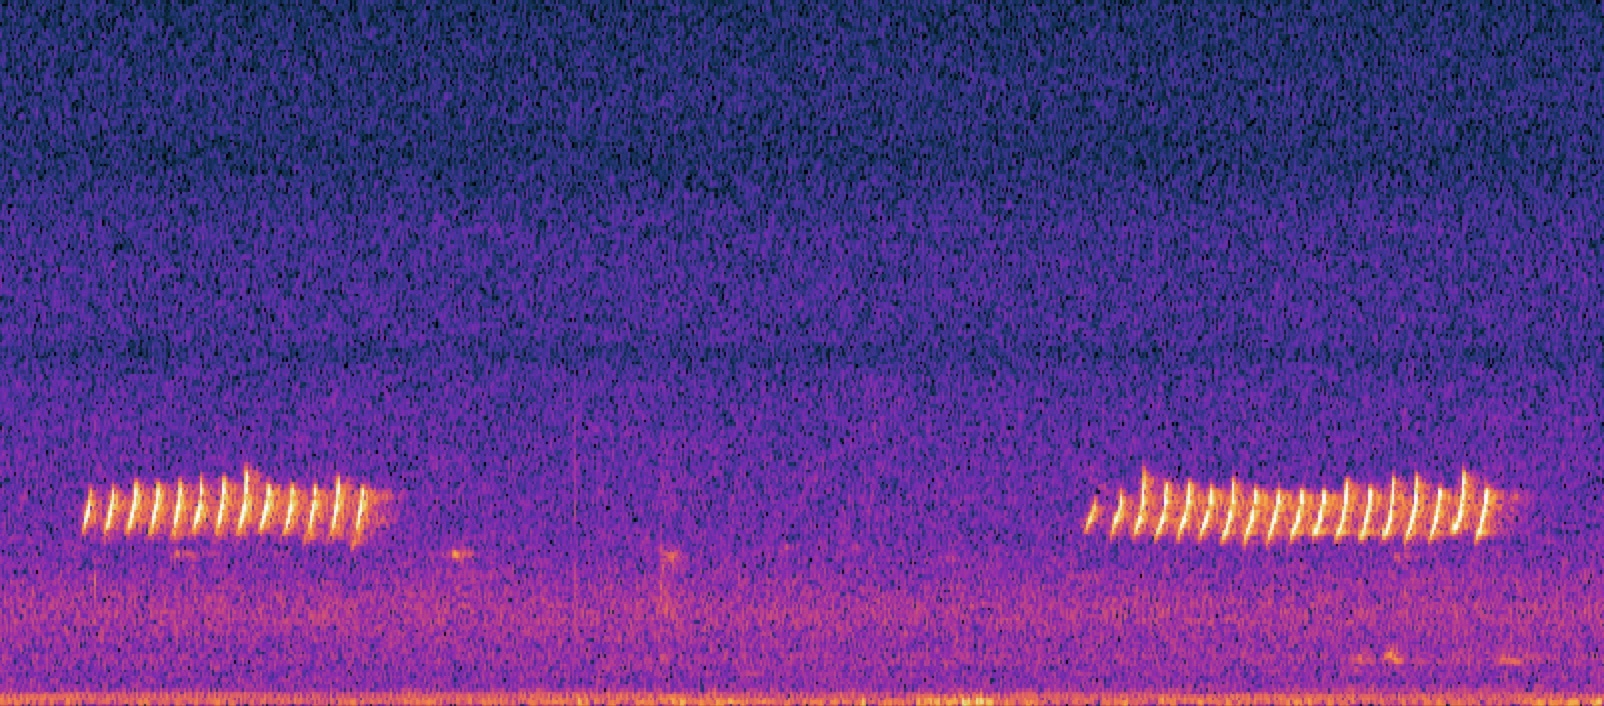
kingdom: Animalia
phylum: Chordata
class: Aves
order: Passeriformes
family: Paridae
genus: Baeolophus
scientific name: Baeolophus atricristatus
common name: Black-crested titmouse
